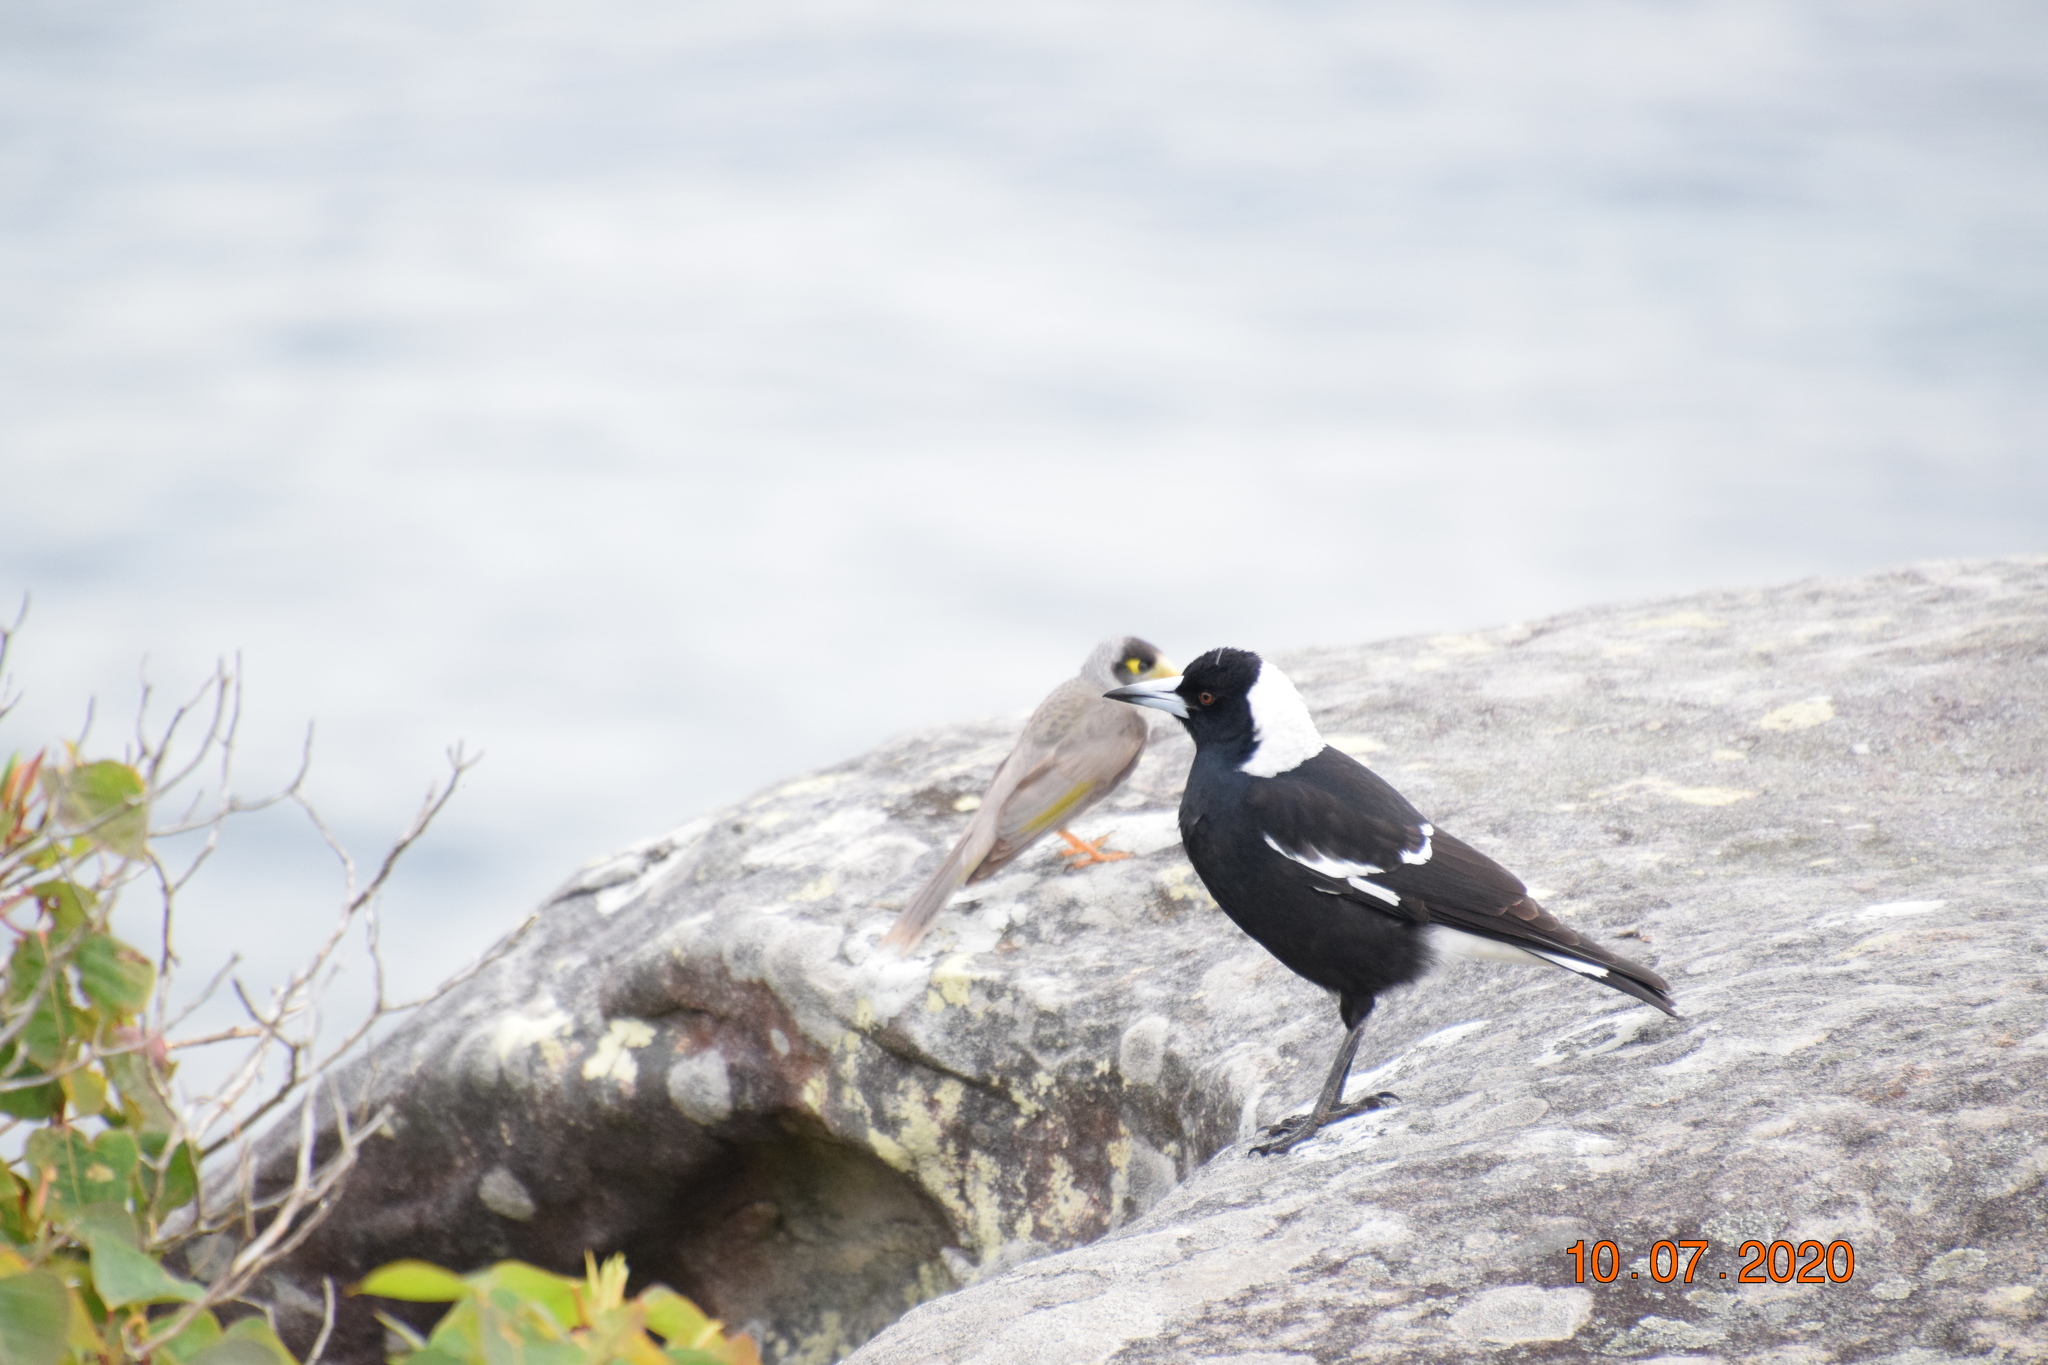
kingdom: Animalia
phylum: Chordata
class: Aves
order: Passeriformes
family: Cracticidae
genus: Gymnorhina
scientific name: Gymnorhina tibicen
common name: Australian magpie
